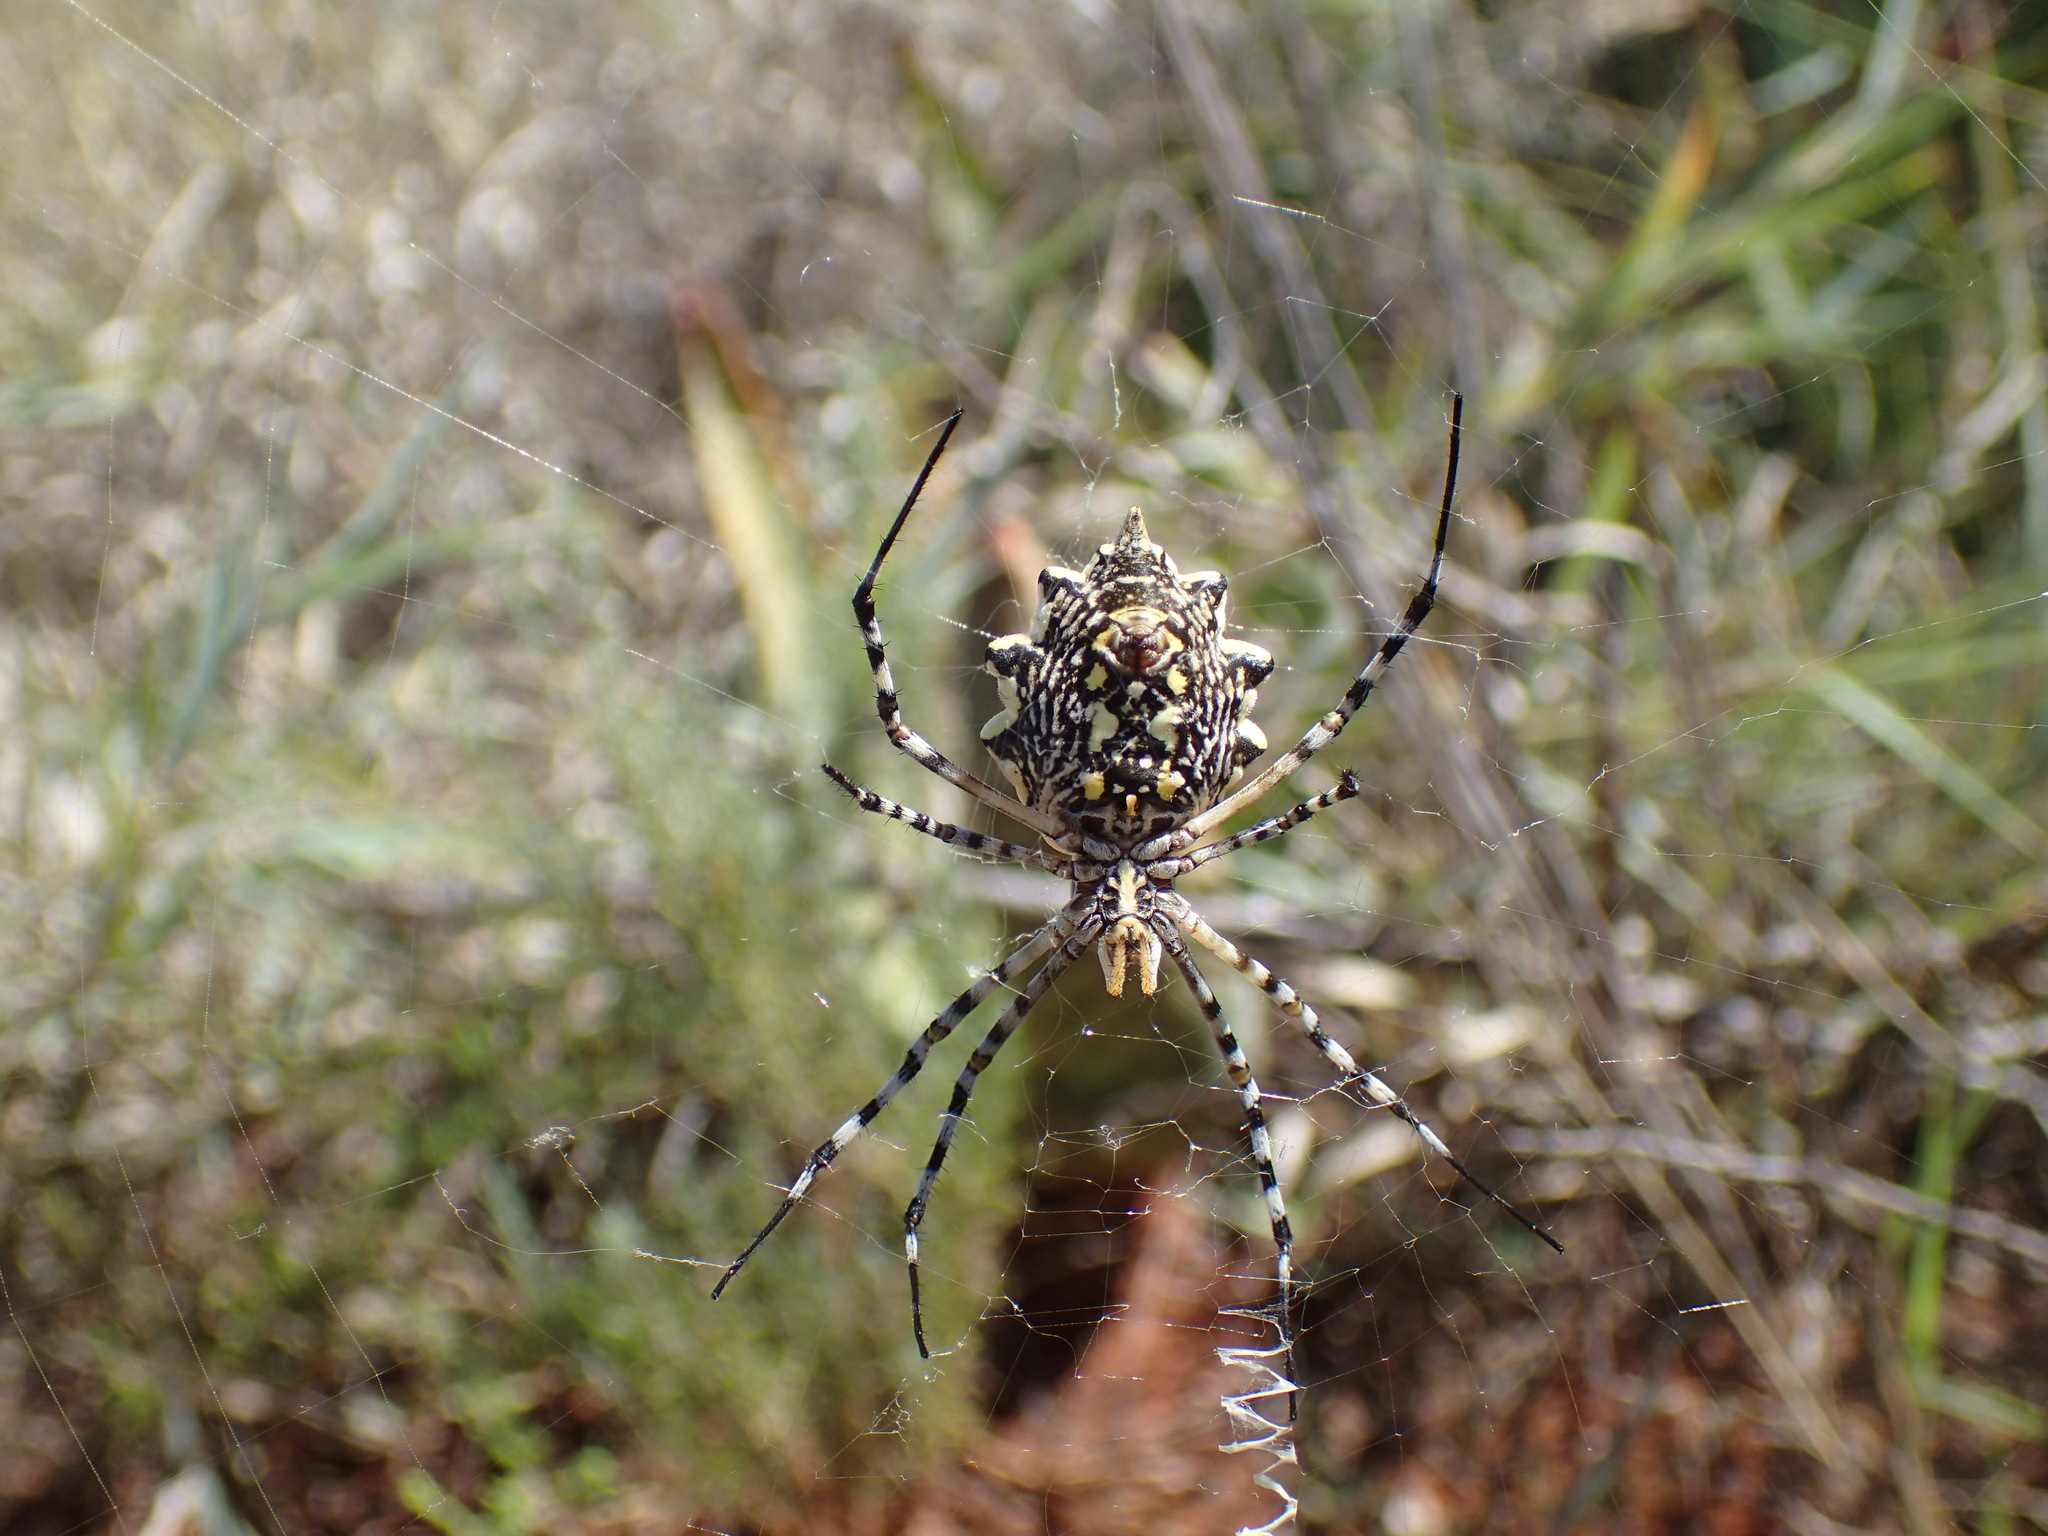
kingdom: Animalia
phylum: Arthropoda
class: Arachnida
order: Araneae
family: Araneidae
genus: Argiope
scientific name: Argiope australis
